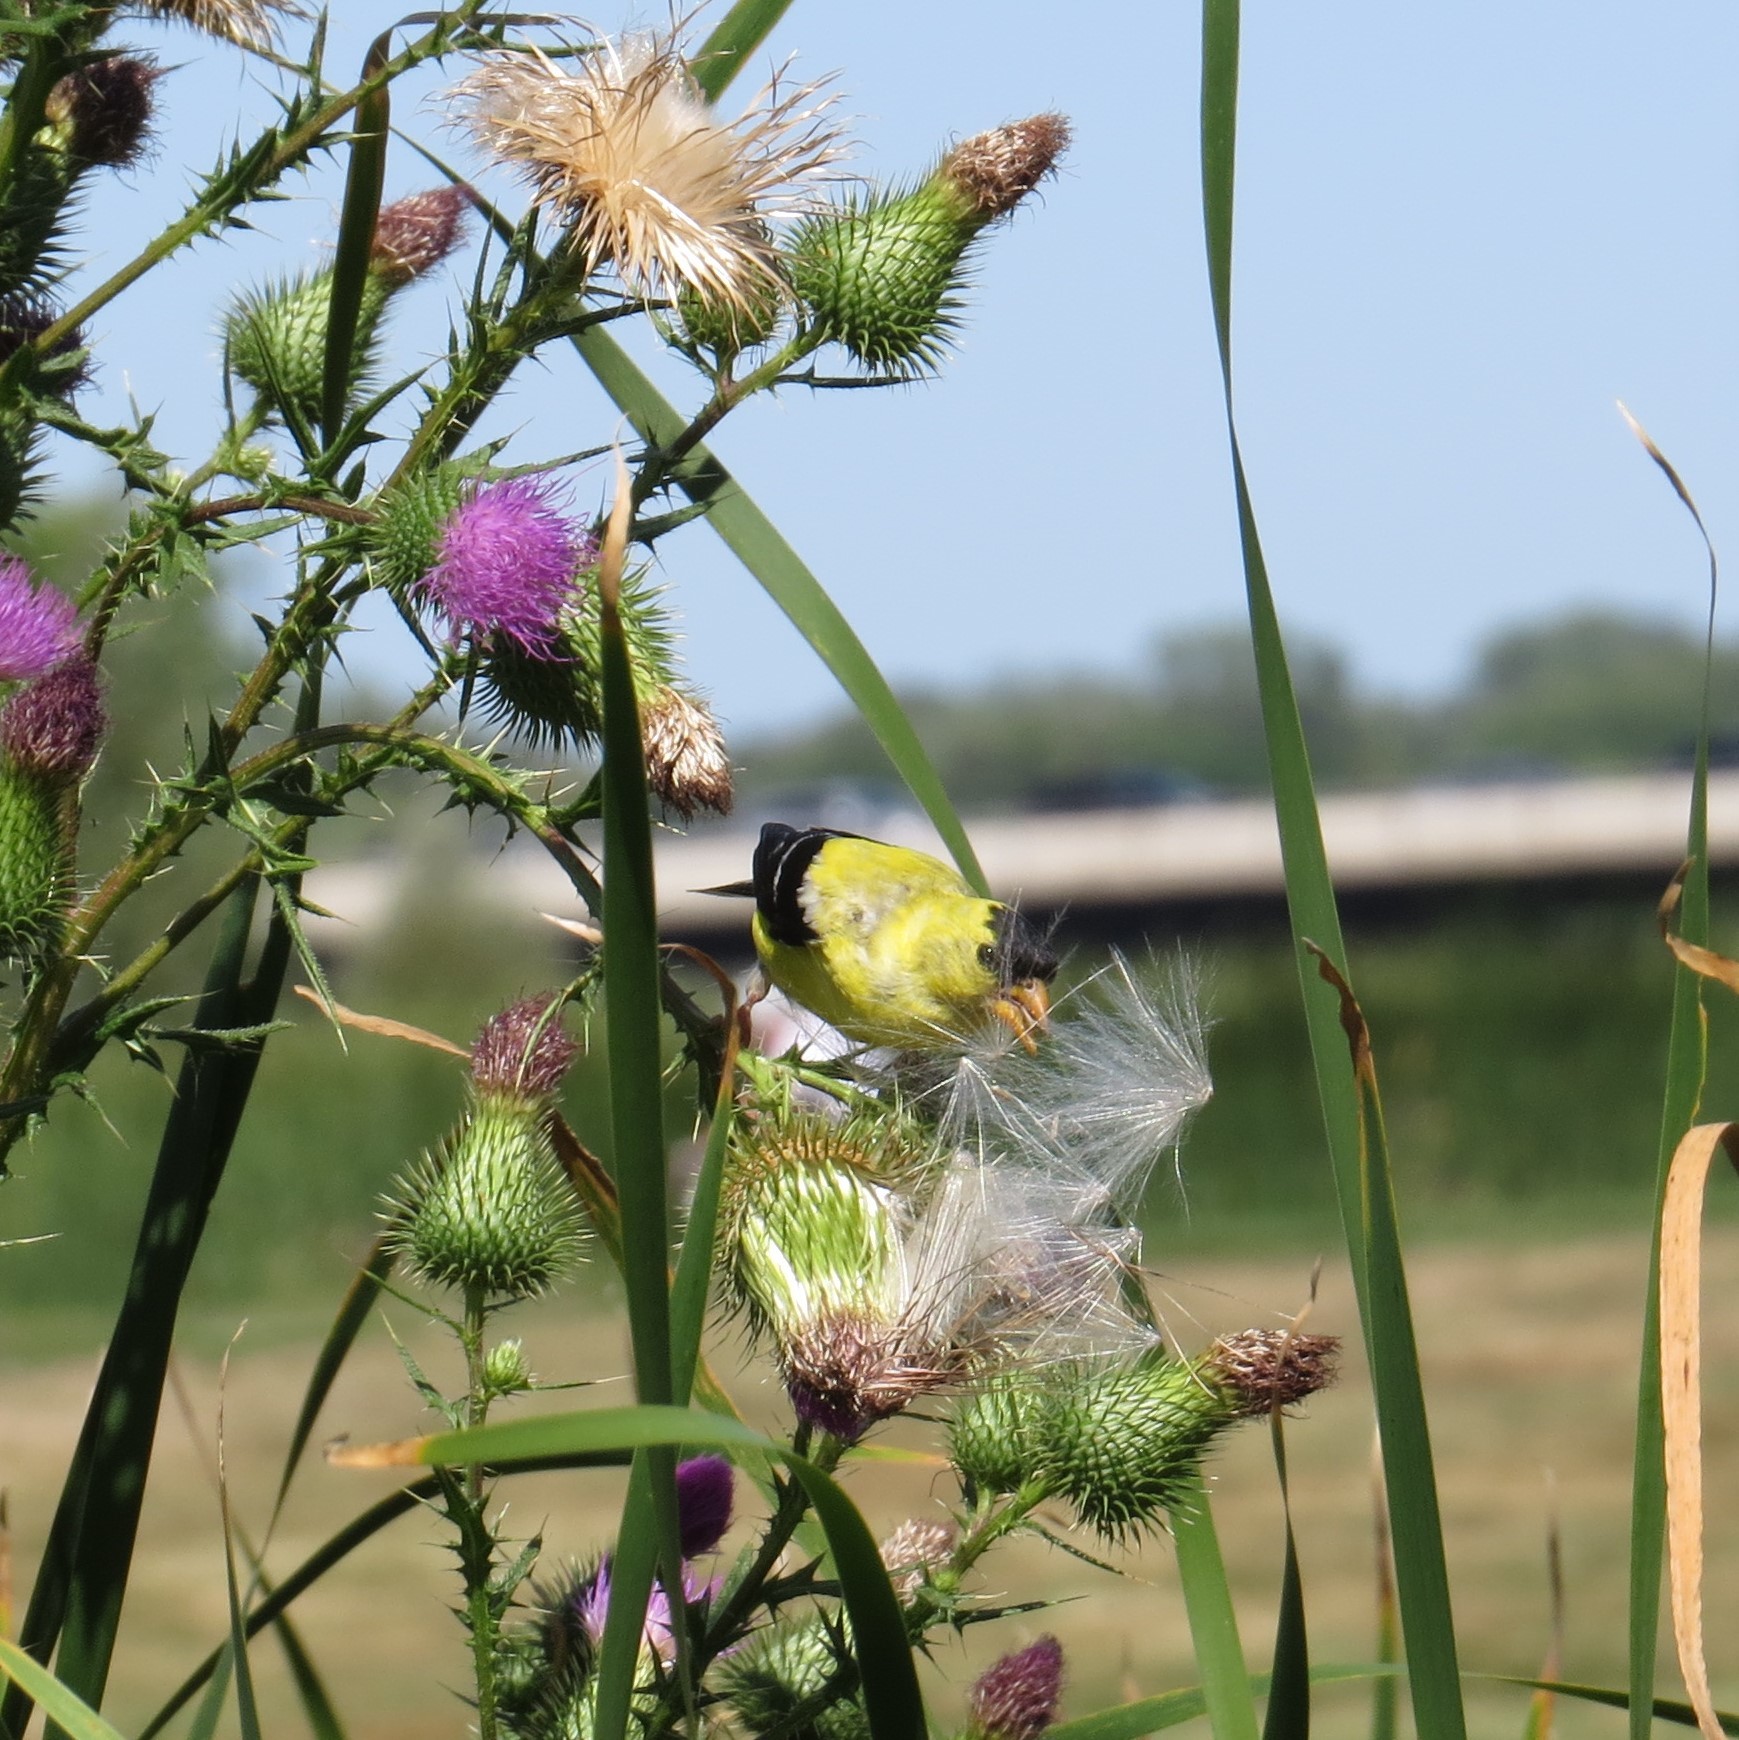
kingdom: Animalia
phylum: Chordata
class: Aves
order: Passeriformes
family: Fringillidae
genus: Spinus
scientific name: Spinus tristis
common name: American goldfinch
